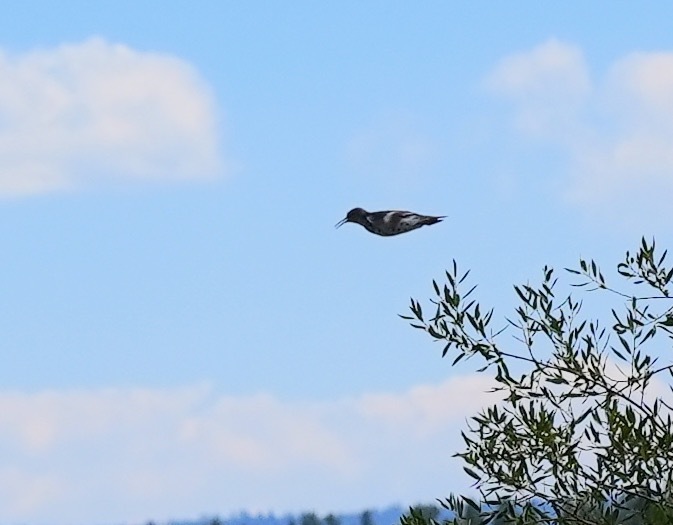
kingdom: Animalia
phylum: Chordata
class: Aves
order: Charadriiformes
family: Scolopacidae
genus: Actitis
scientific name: Actitis macularius
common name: Spotted sandpiper
